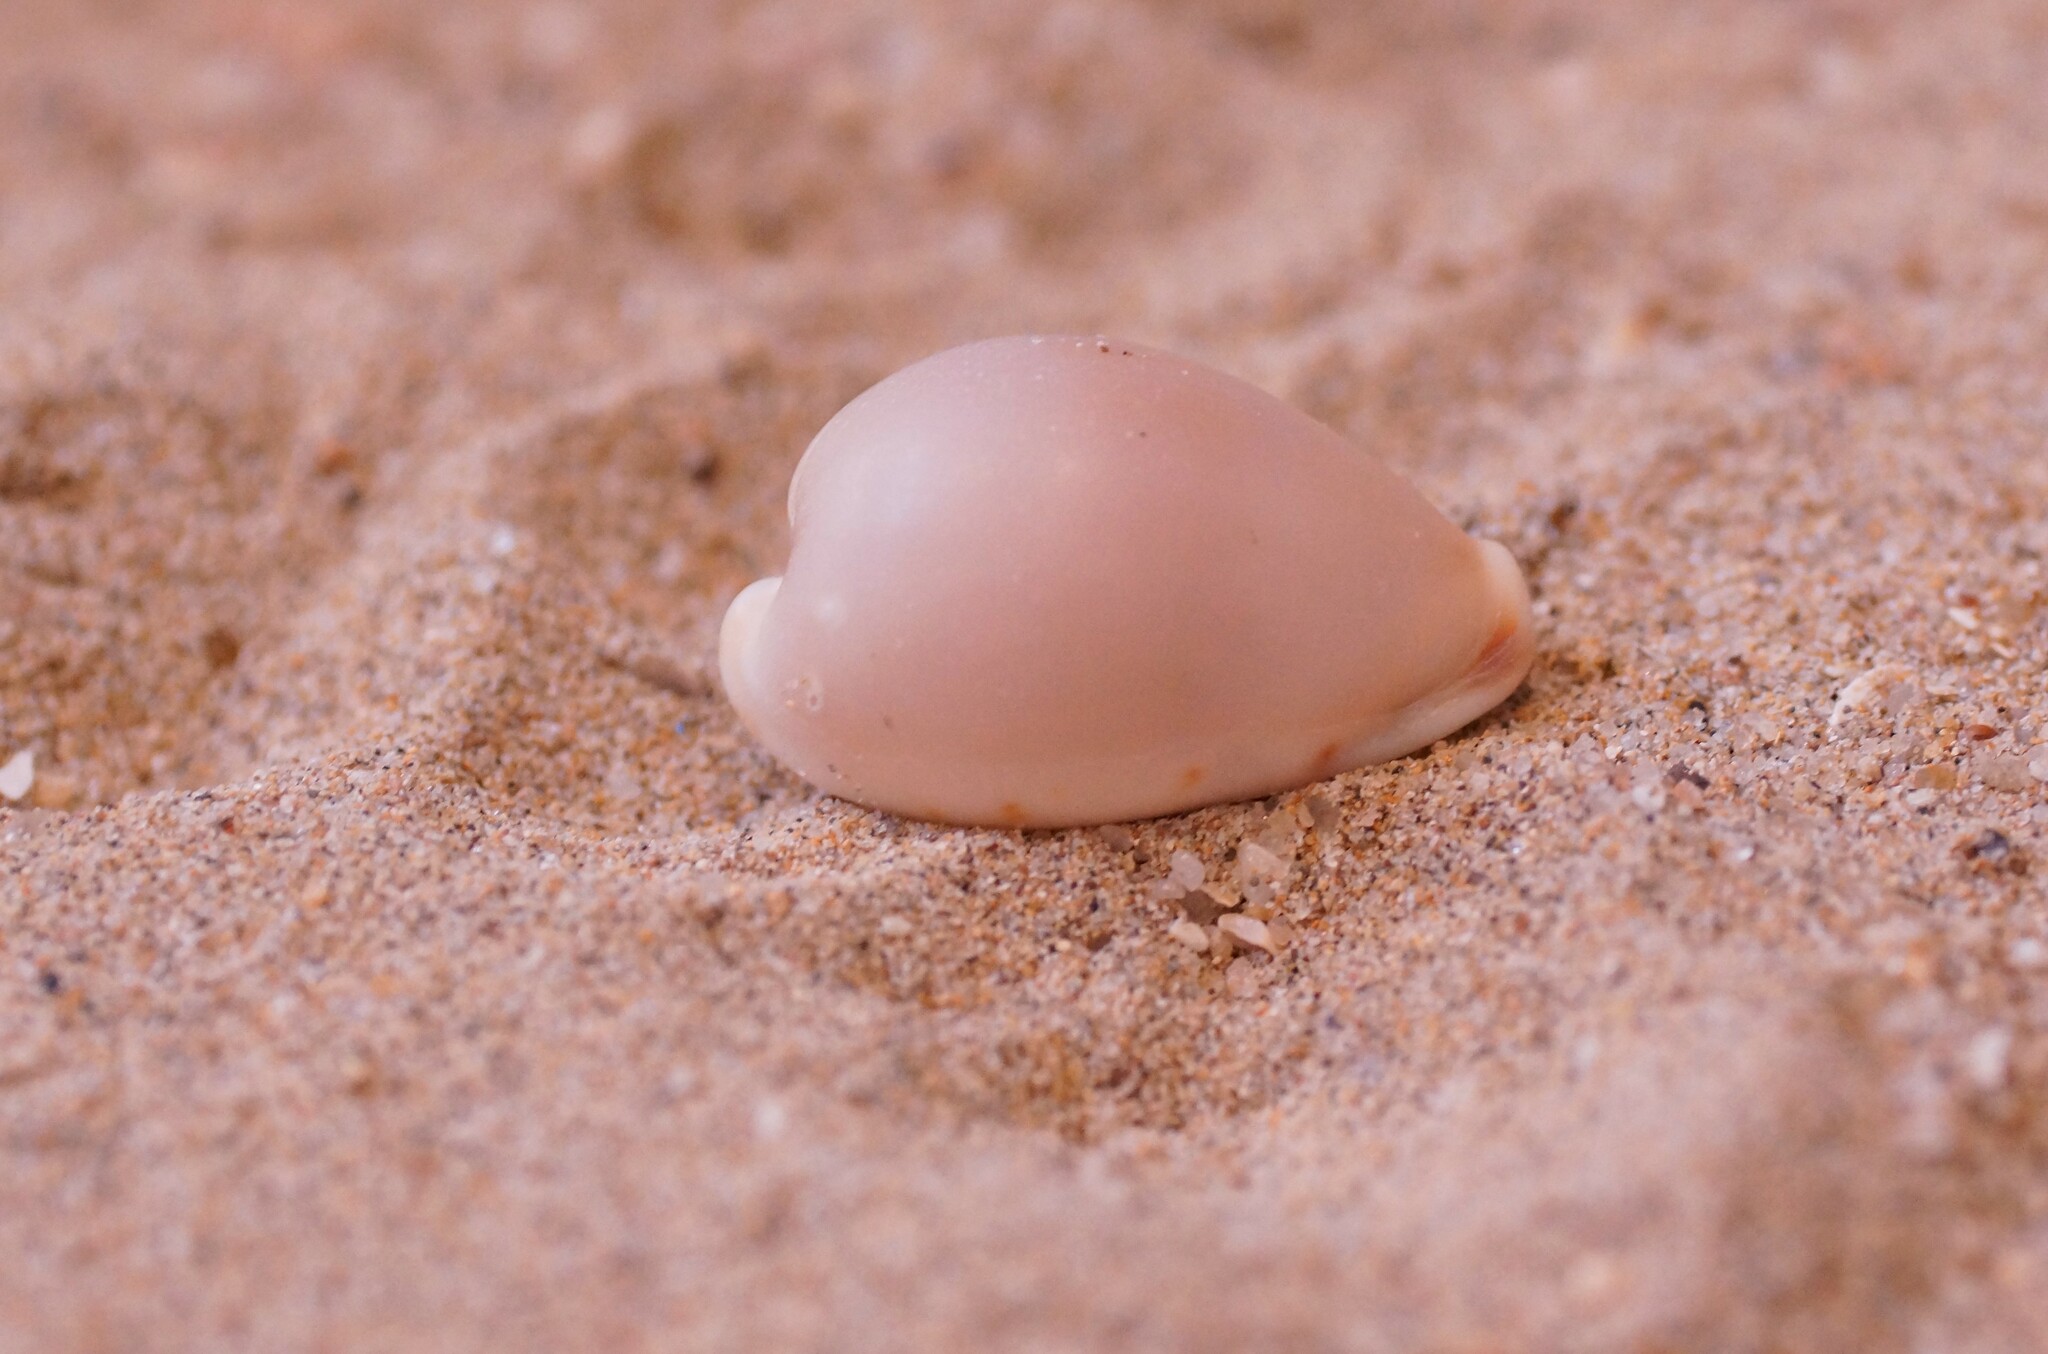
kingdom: Animalia
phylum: Mollusca
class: Gastropoda
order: Littorinimorpha
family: Cypraeidae
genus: Erronea
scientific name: Erronea pyriformis
